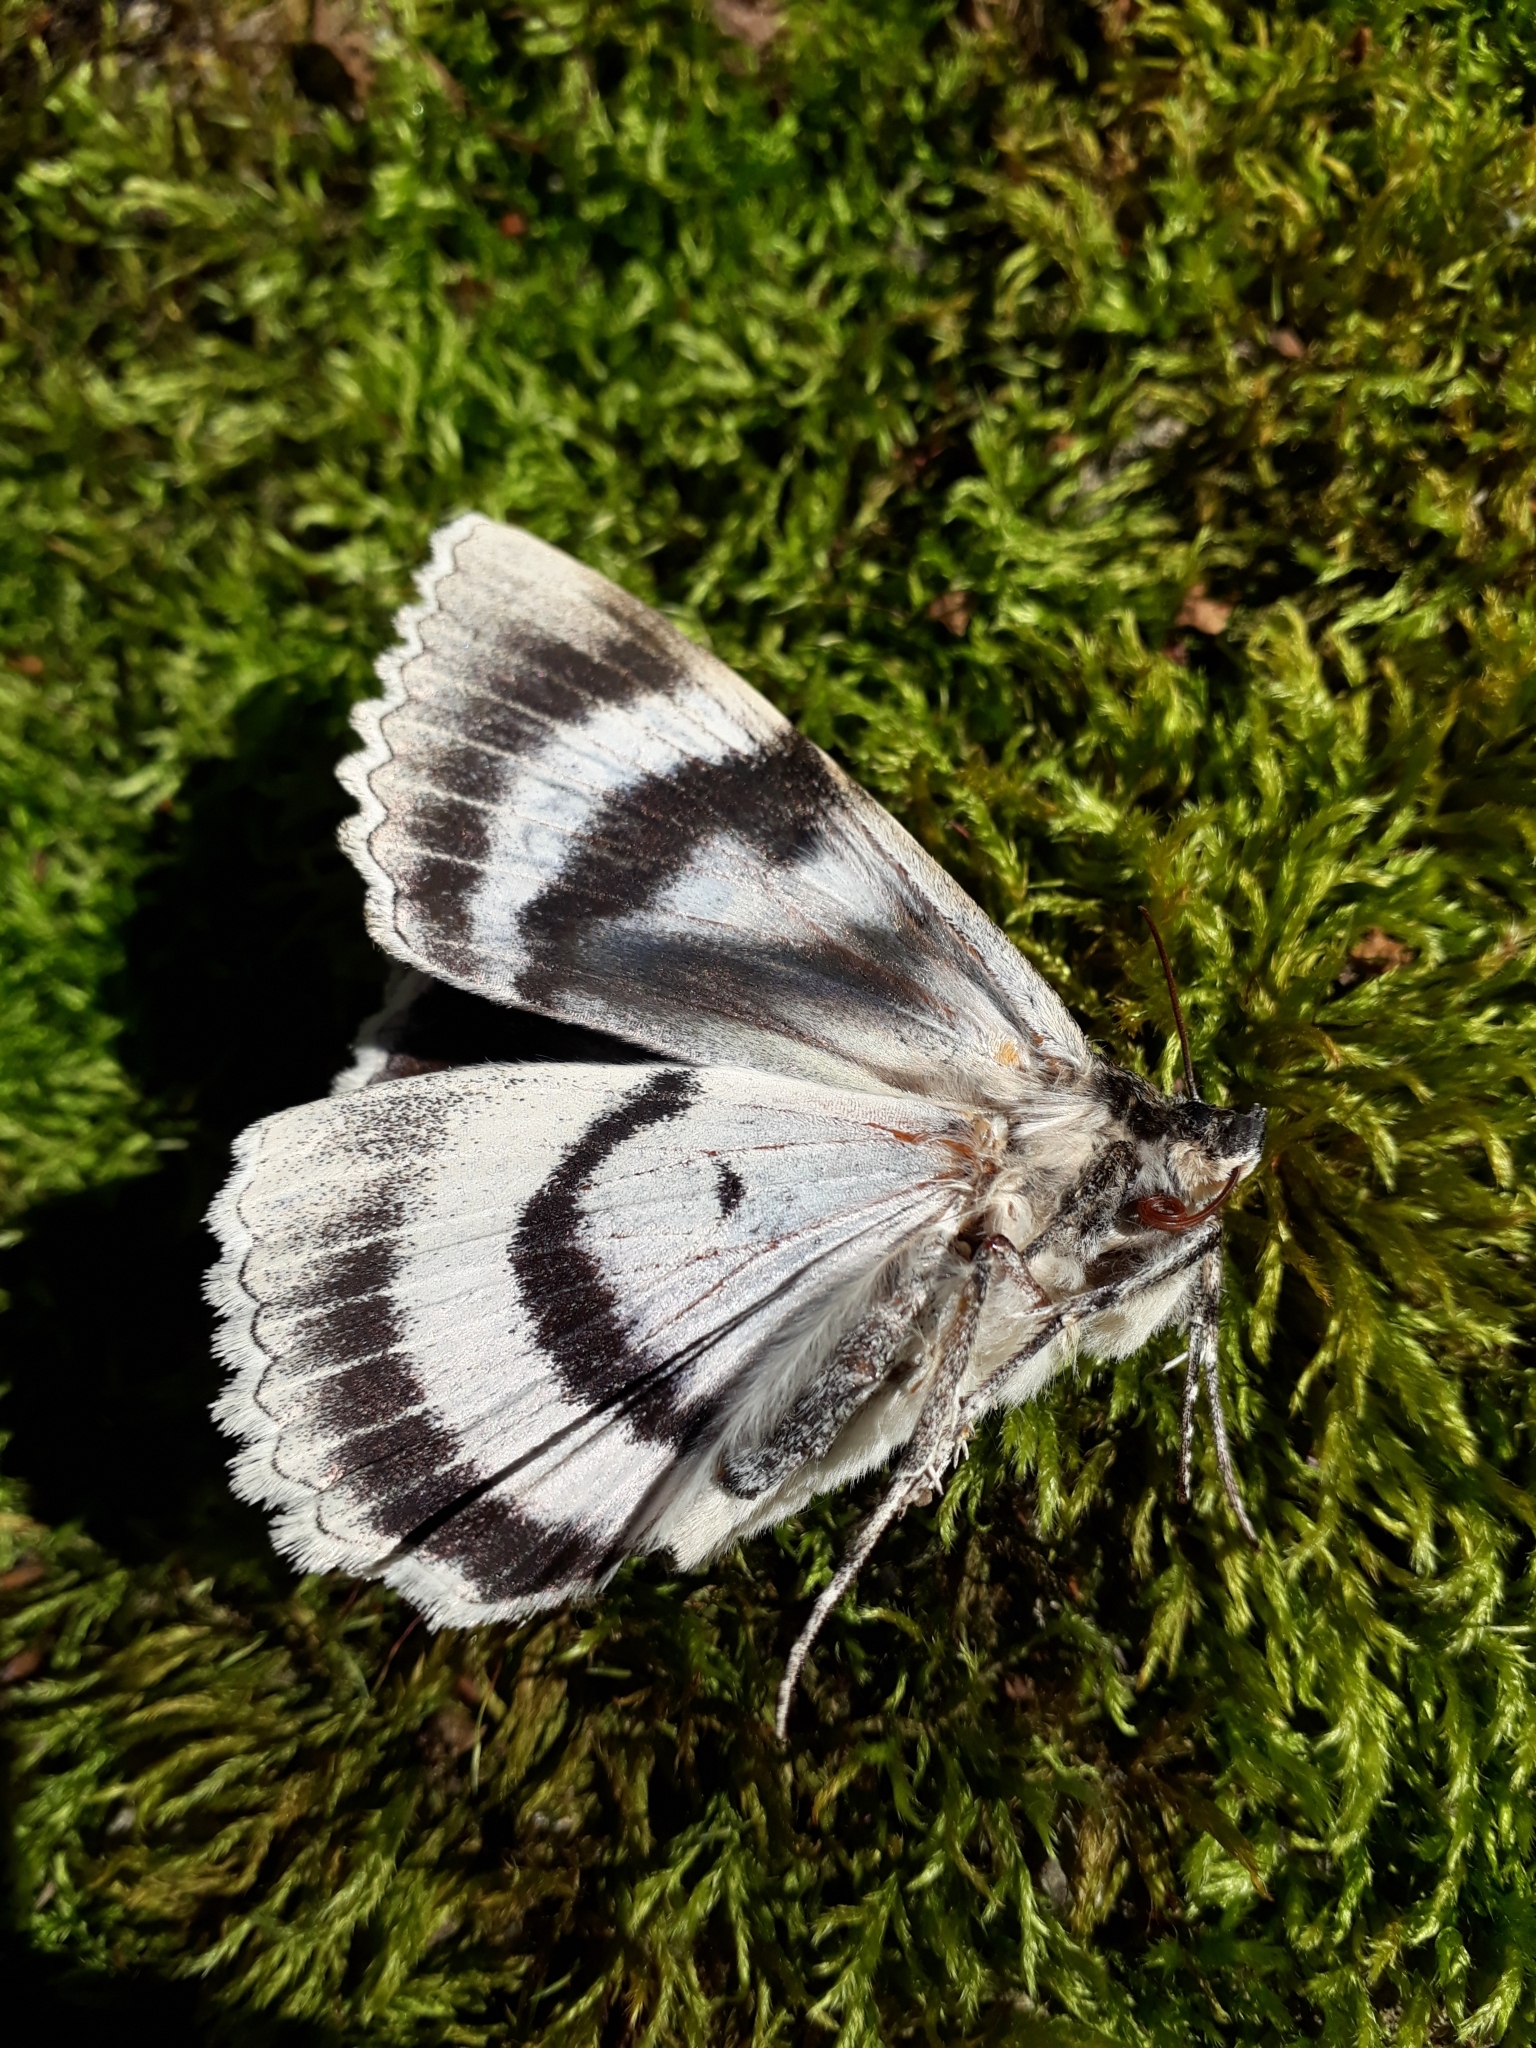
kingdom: Animalia
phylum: Arthropoda
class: Insecta
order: Lepidoptera
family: Erebidae
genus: Catocala
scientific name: Catocala fraxini
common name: Clifden nonpareil
